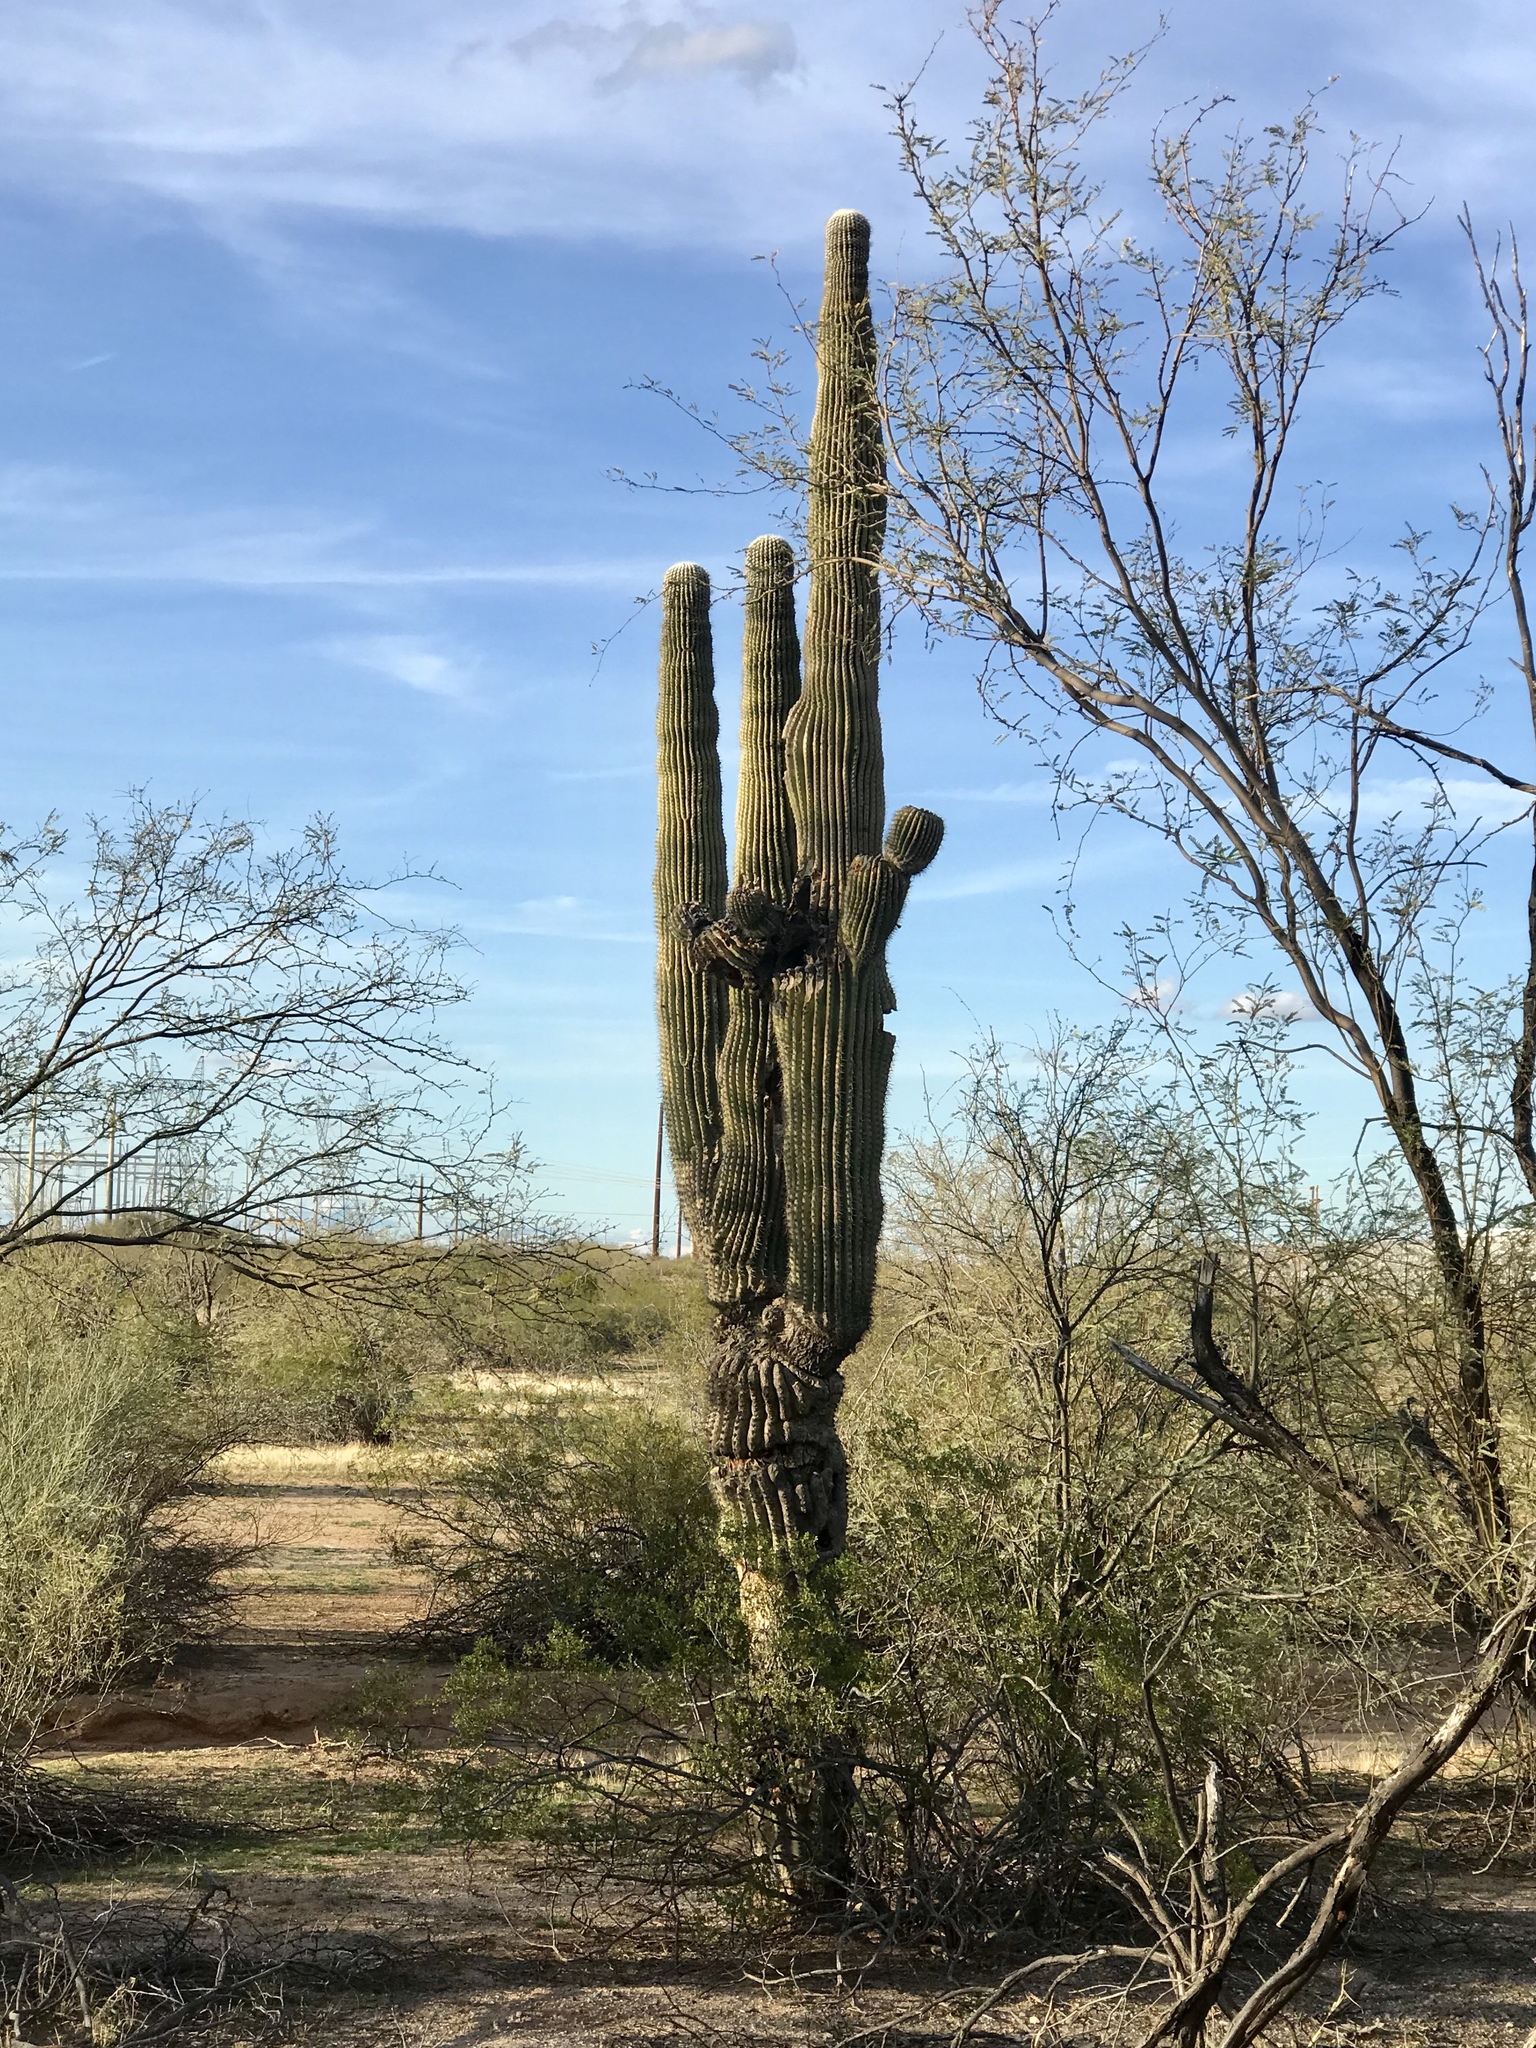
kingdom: Plantae
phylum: Tracheophyta
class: Magnoliopsida
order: Caryophyllales
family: Cactaceae
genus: Carnegiea
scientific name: Carnegiea gigantea
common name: Saguaro
